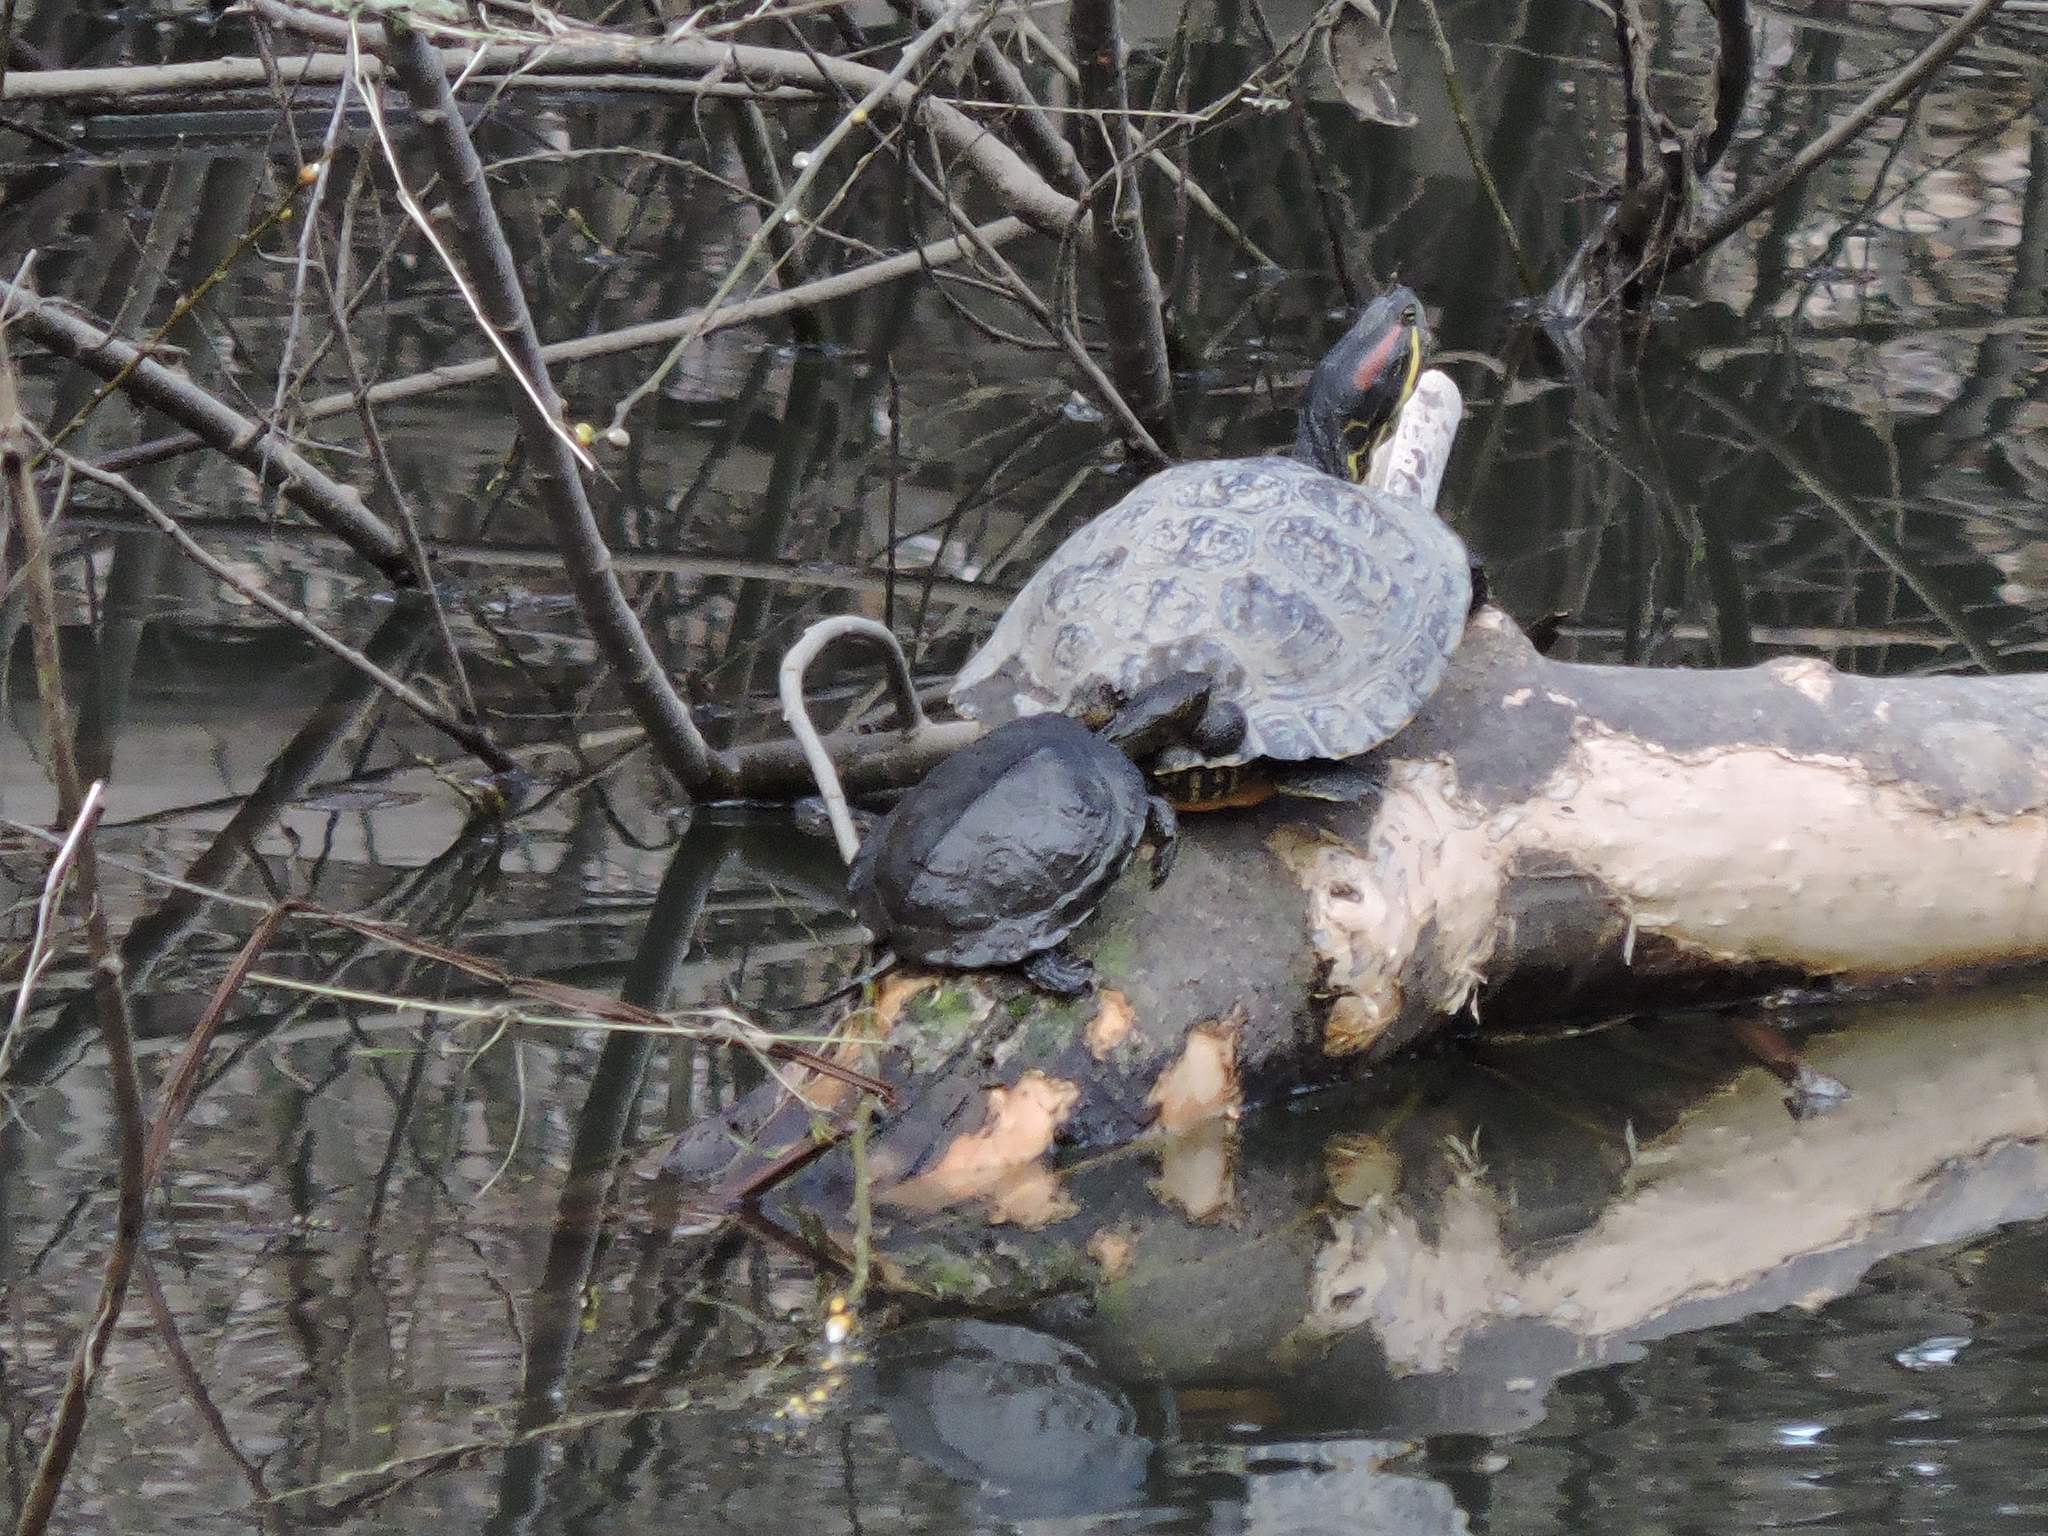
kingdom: Animalia
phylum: Chordata
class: Testudines
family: Emydidae
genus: Actinemys
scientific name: Actinemys marmorata
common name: Western pond turtle
